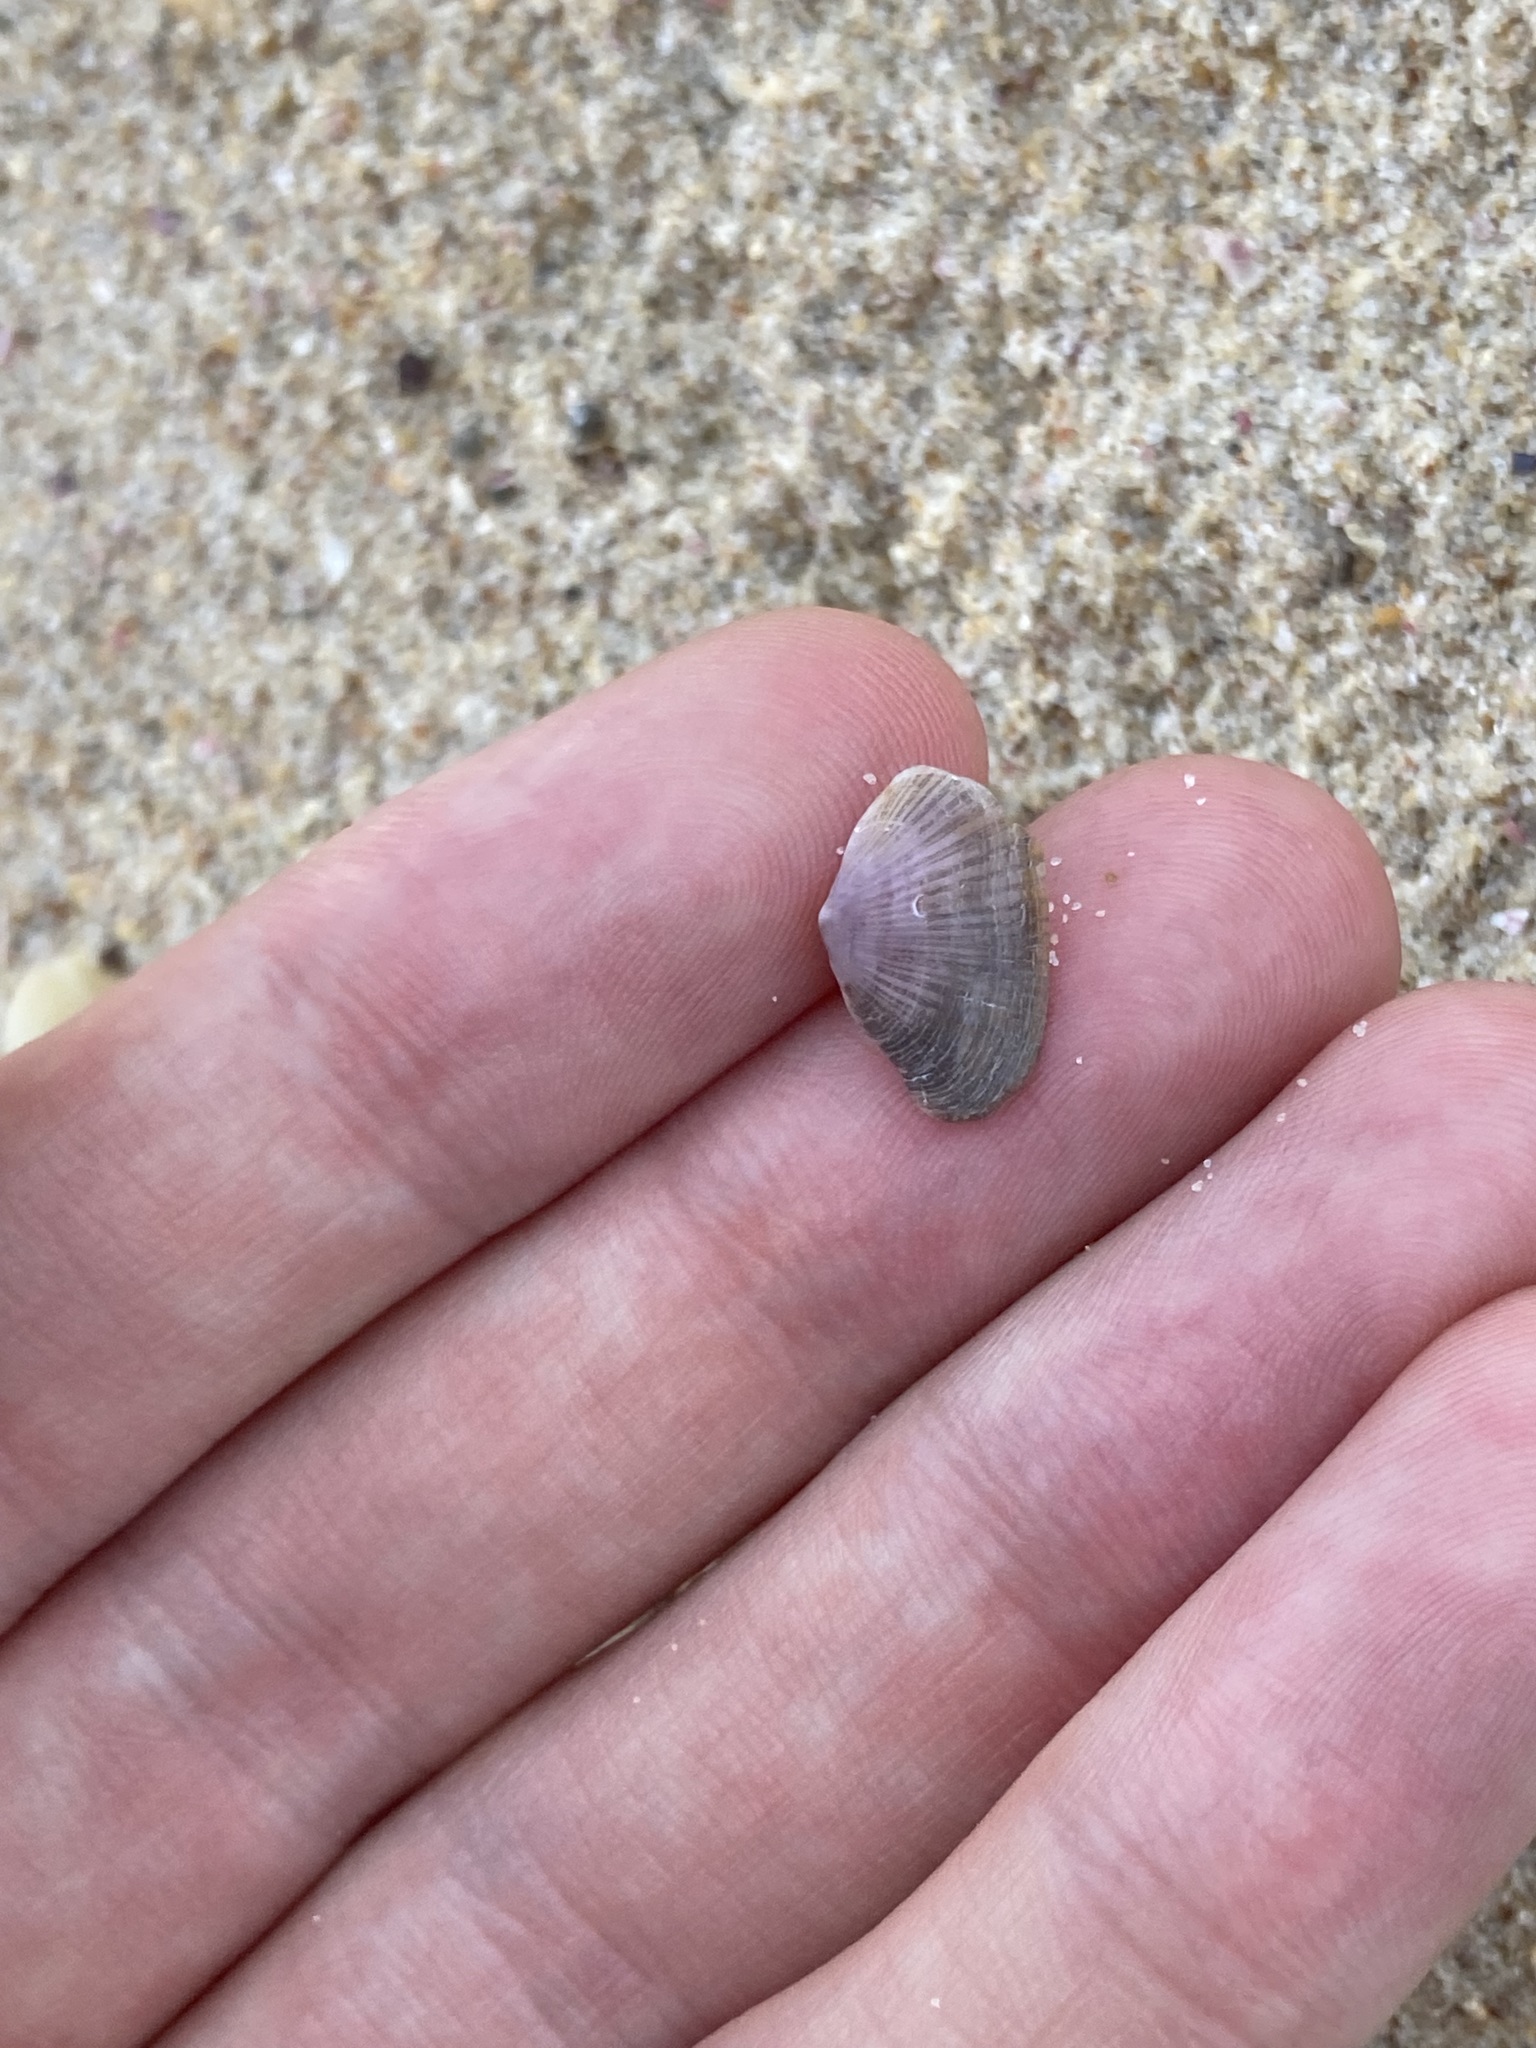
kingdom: Animalia
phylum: Mollusca
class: Bivalvia
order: Venerida
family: Hemidonacidae
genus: Hemidonax
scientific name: Hemidonax dactylus
